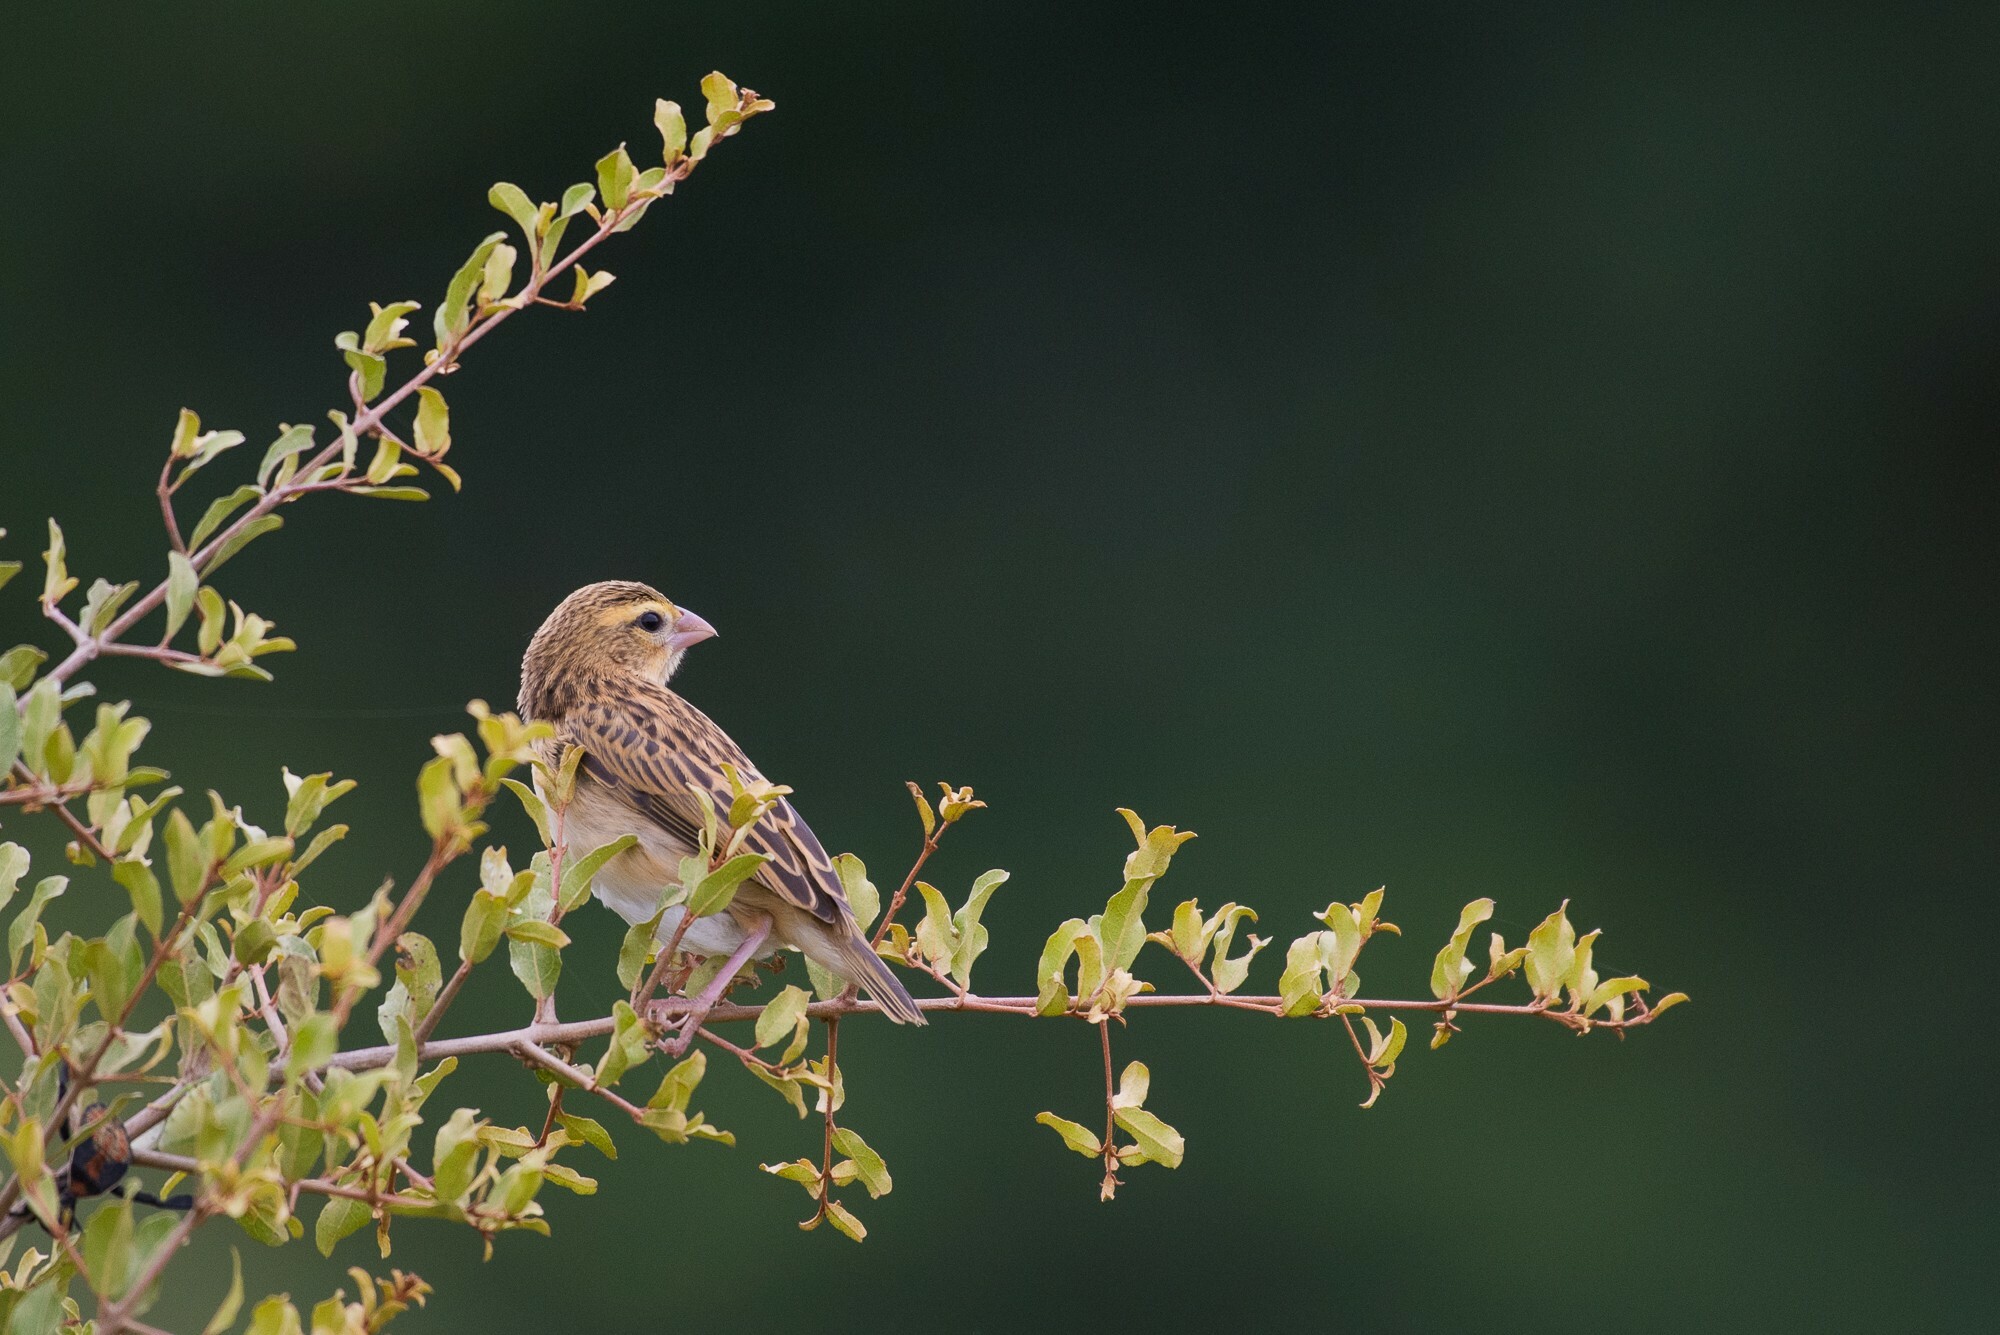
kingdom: Animalia
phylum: Chordata
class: Aves
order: Passeriformes
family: Ploceidae
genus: Euplectes
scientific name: Euplectes orix
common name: Southern red bishop
